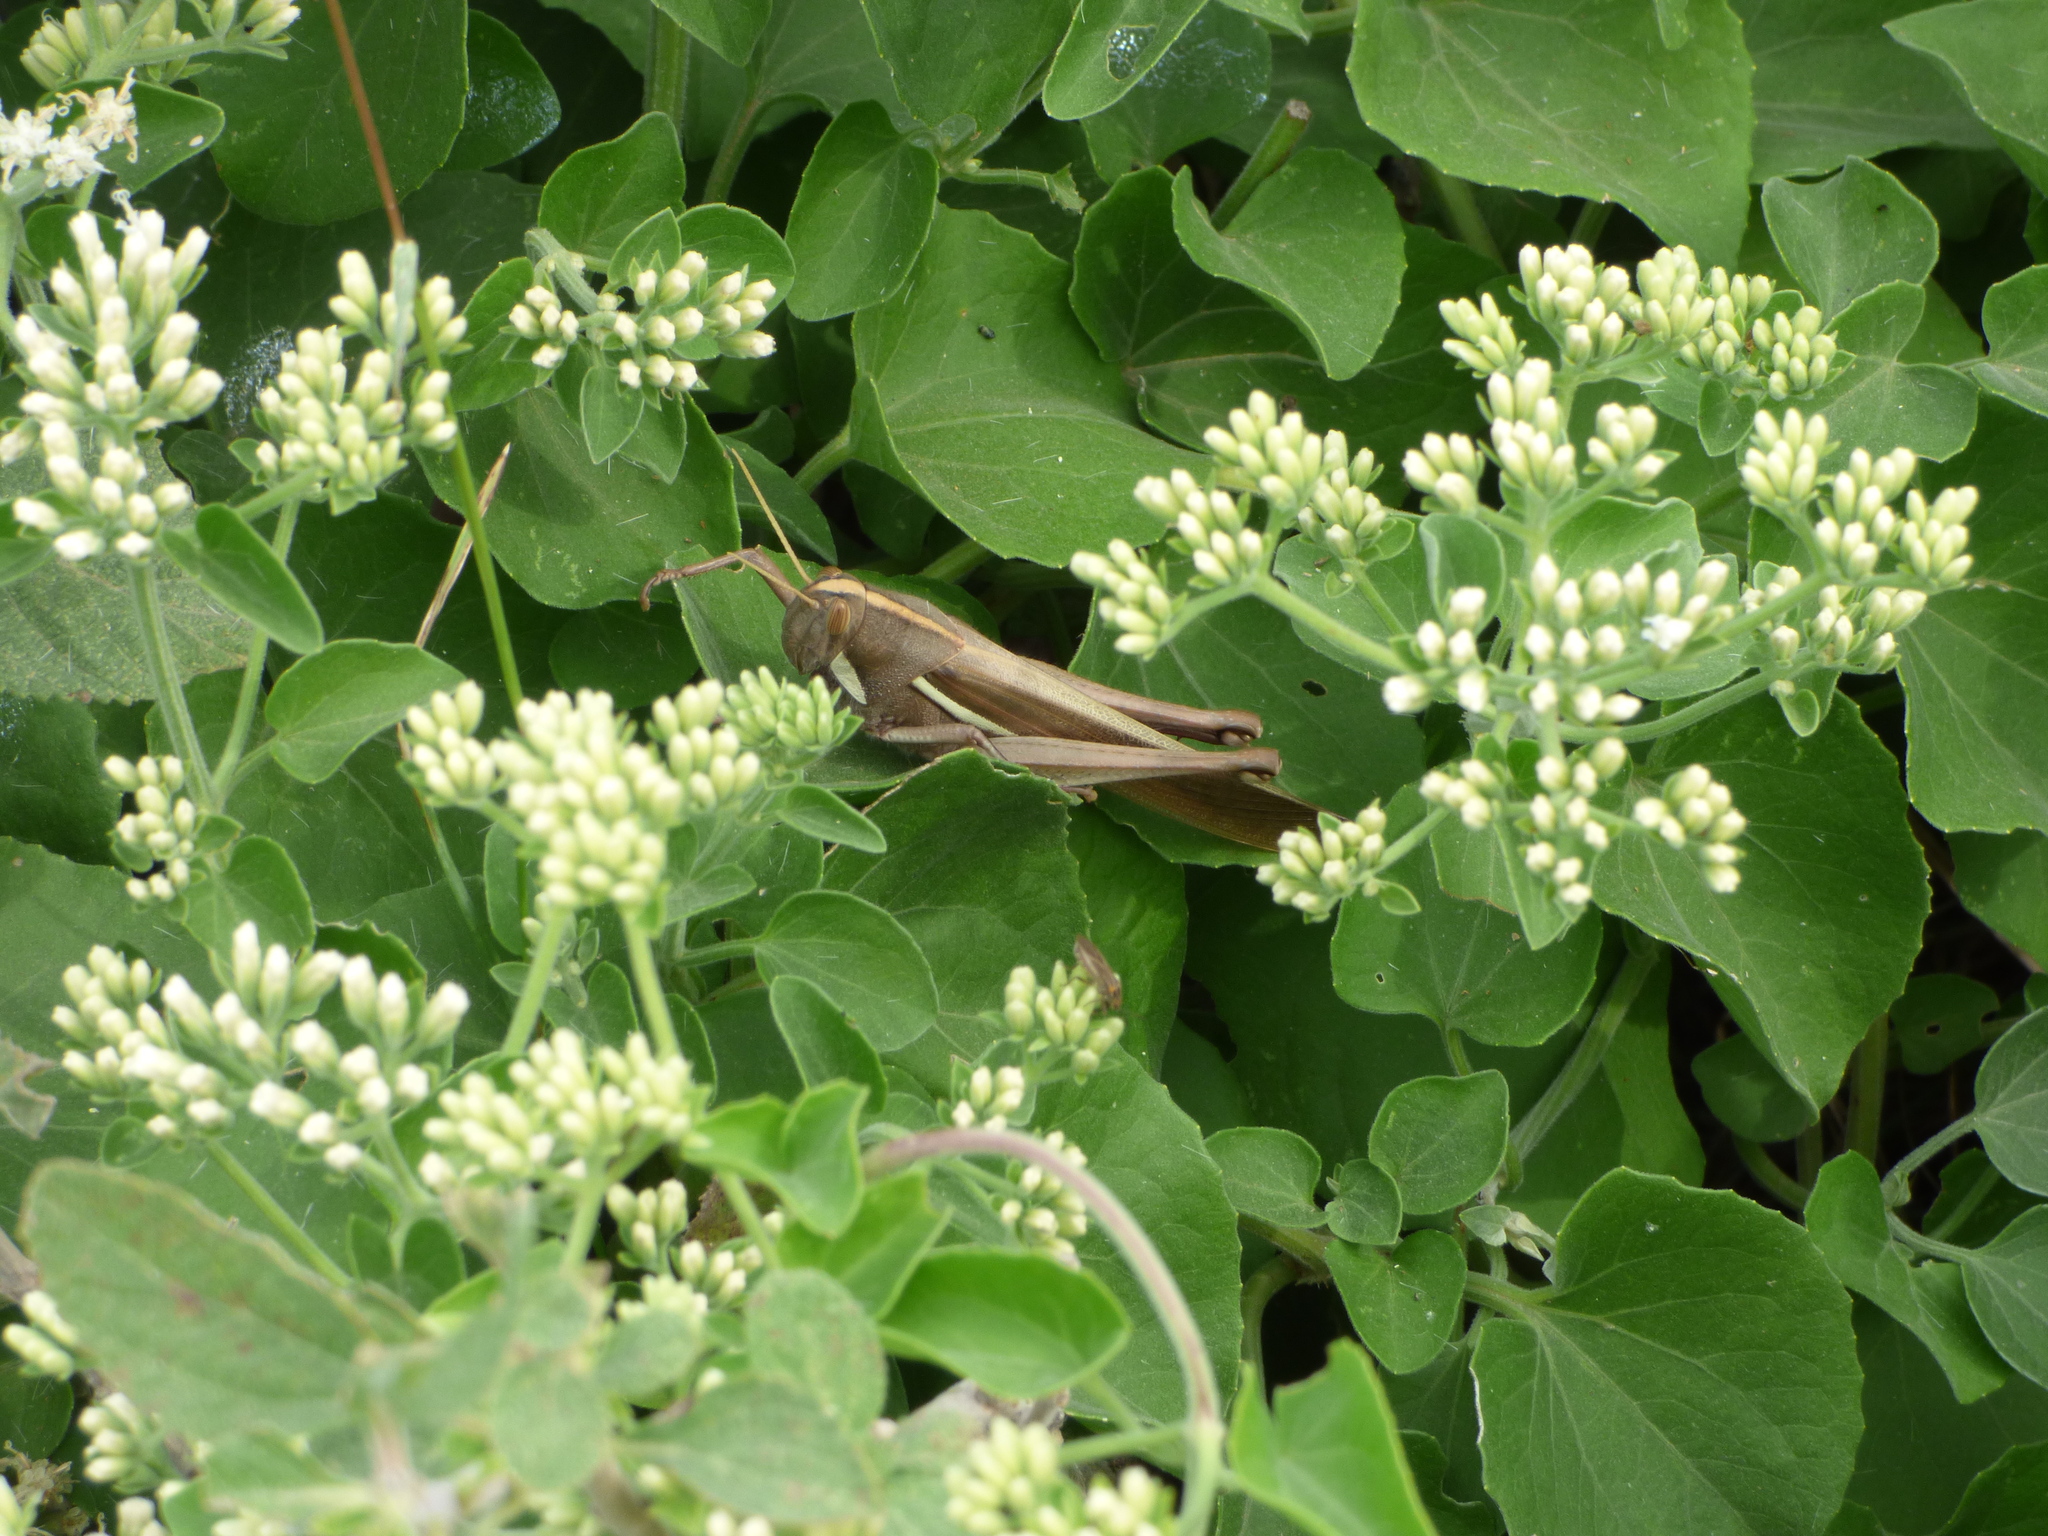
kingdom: Animalia
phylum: Arthropoda
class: Insecta
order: Orthoptera
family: Acrididae
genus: Schistocerca
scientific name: Schistocerca flavofasciata
